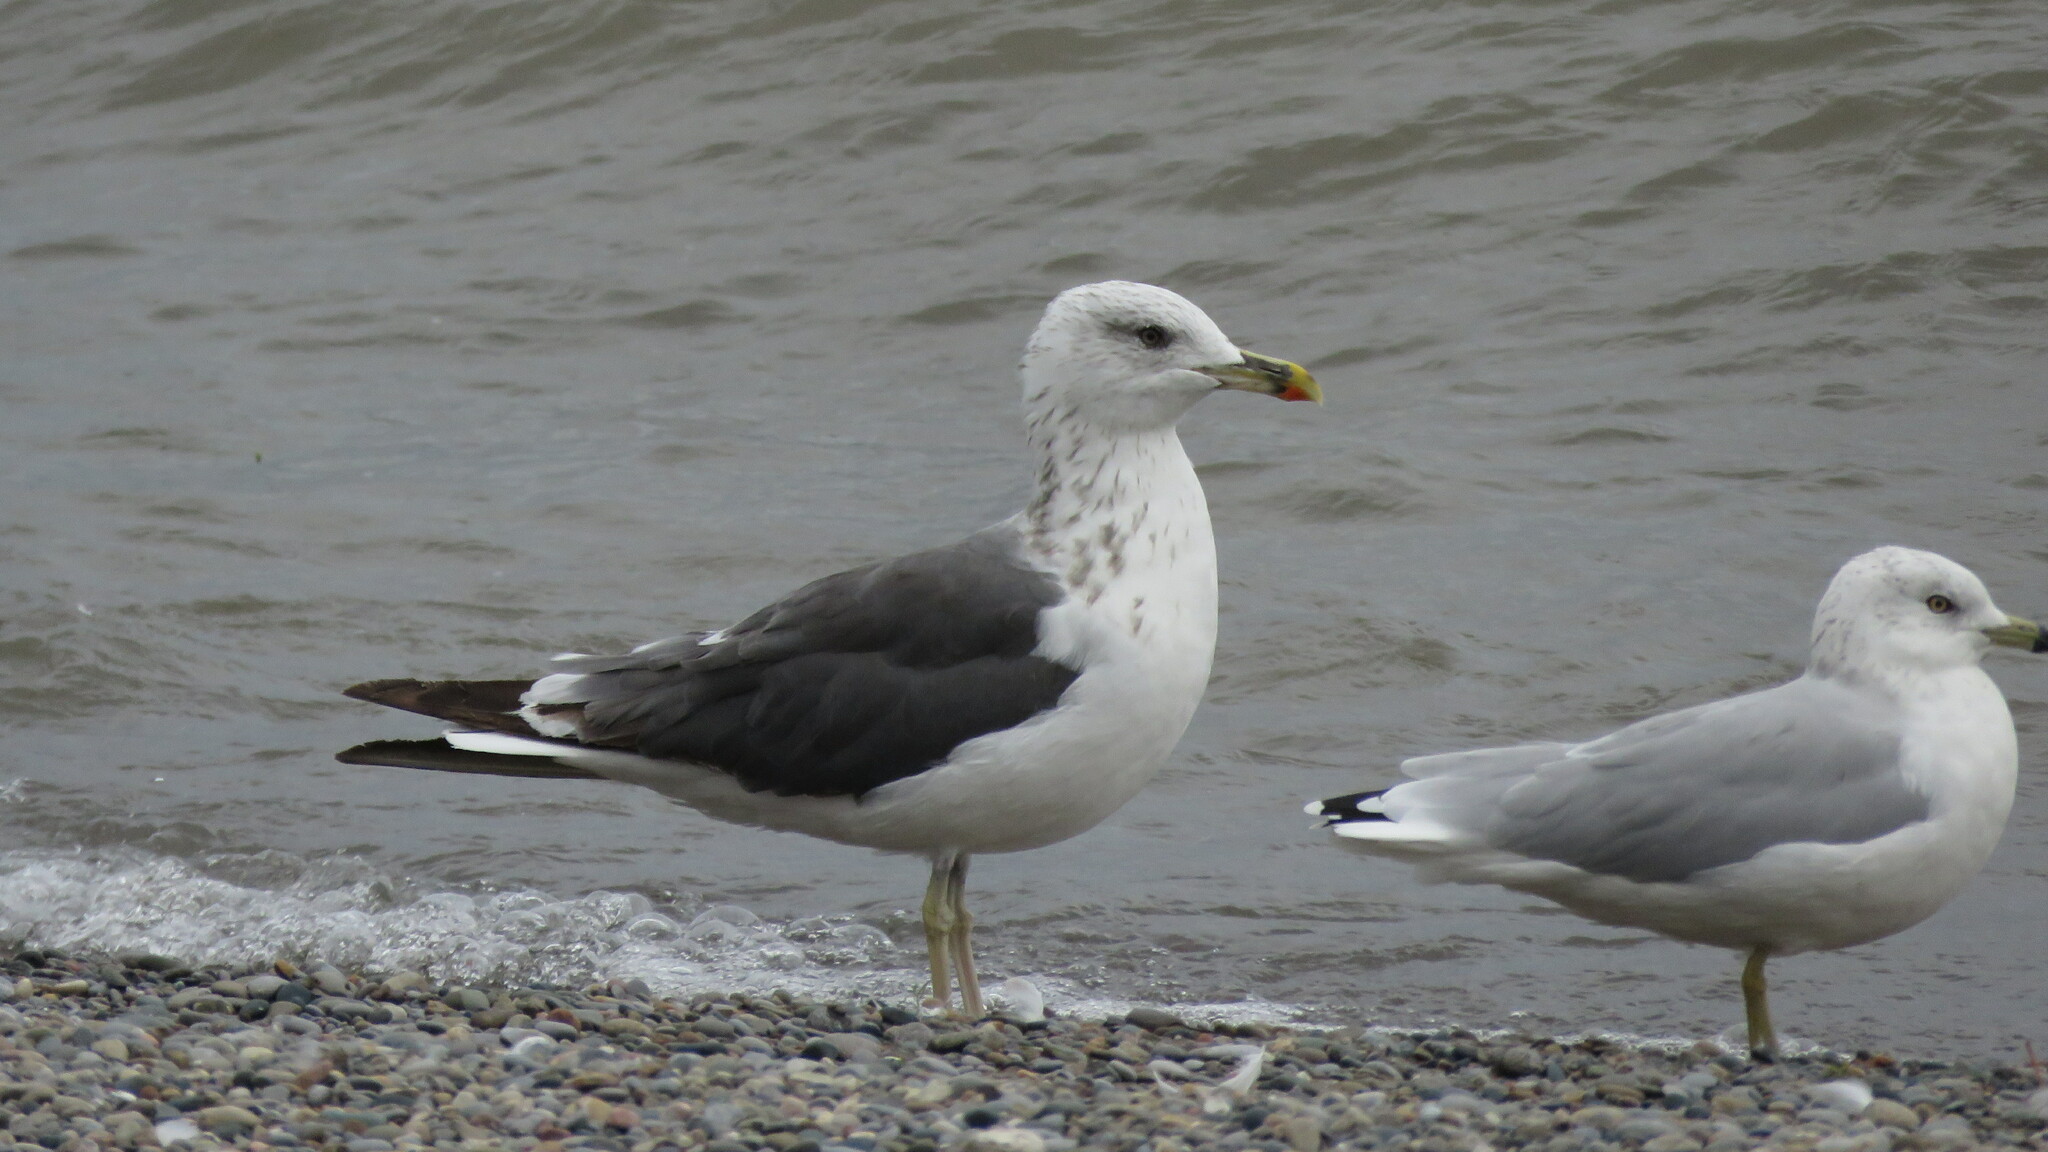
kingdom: Animalia
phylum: Chordata
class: Aves
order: Charadriiformes
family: Laridae
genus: Larus
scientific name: Larus fuscus
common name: Lesser black-backed gull
